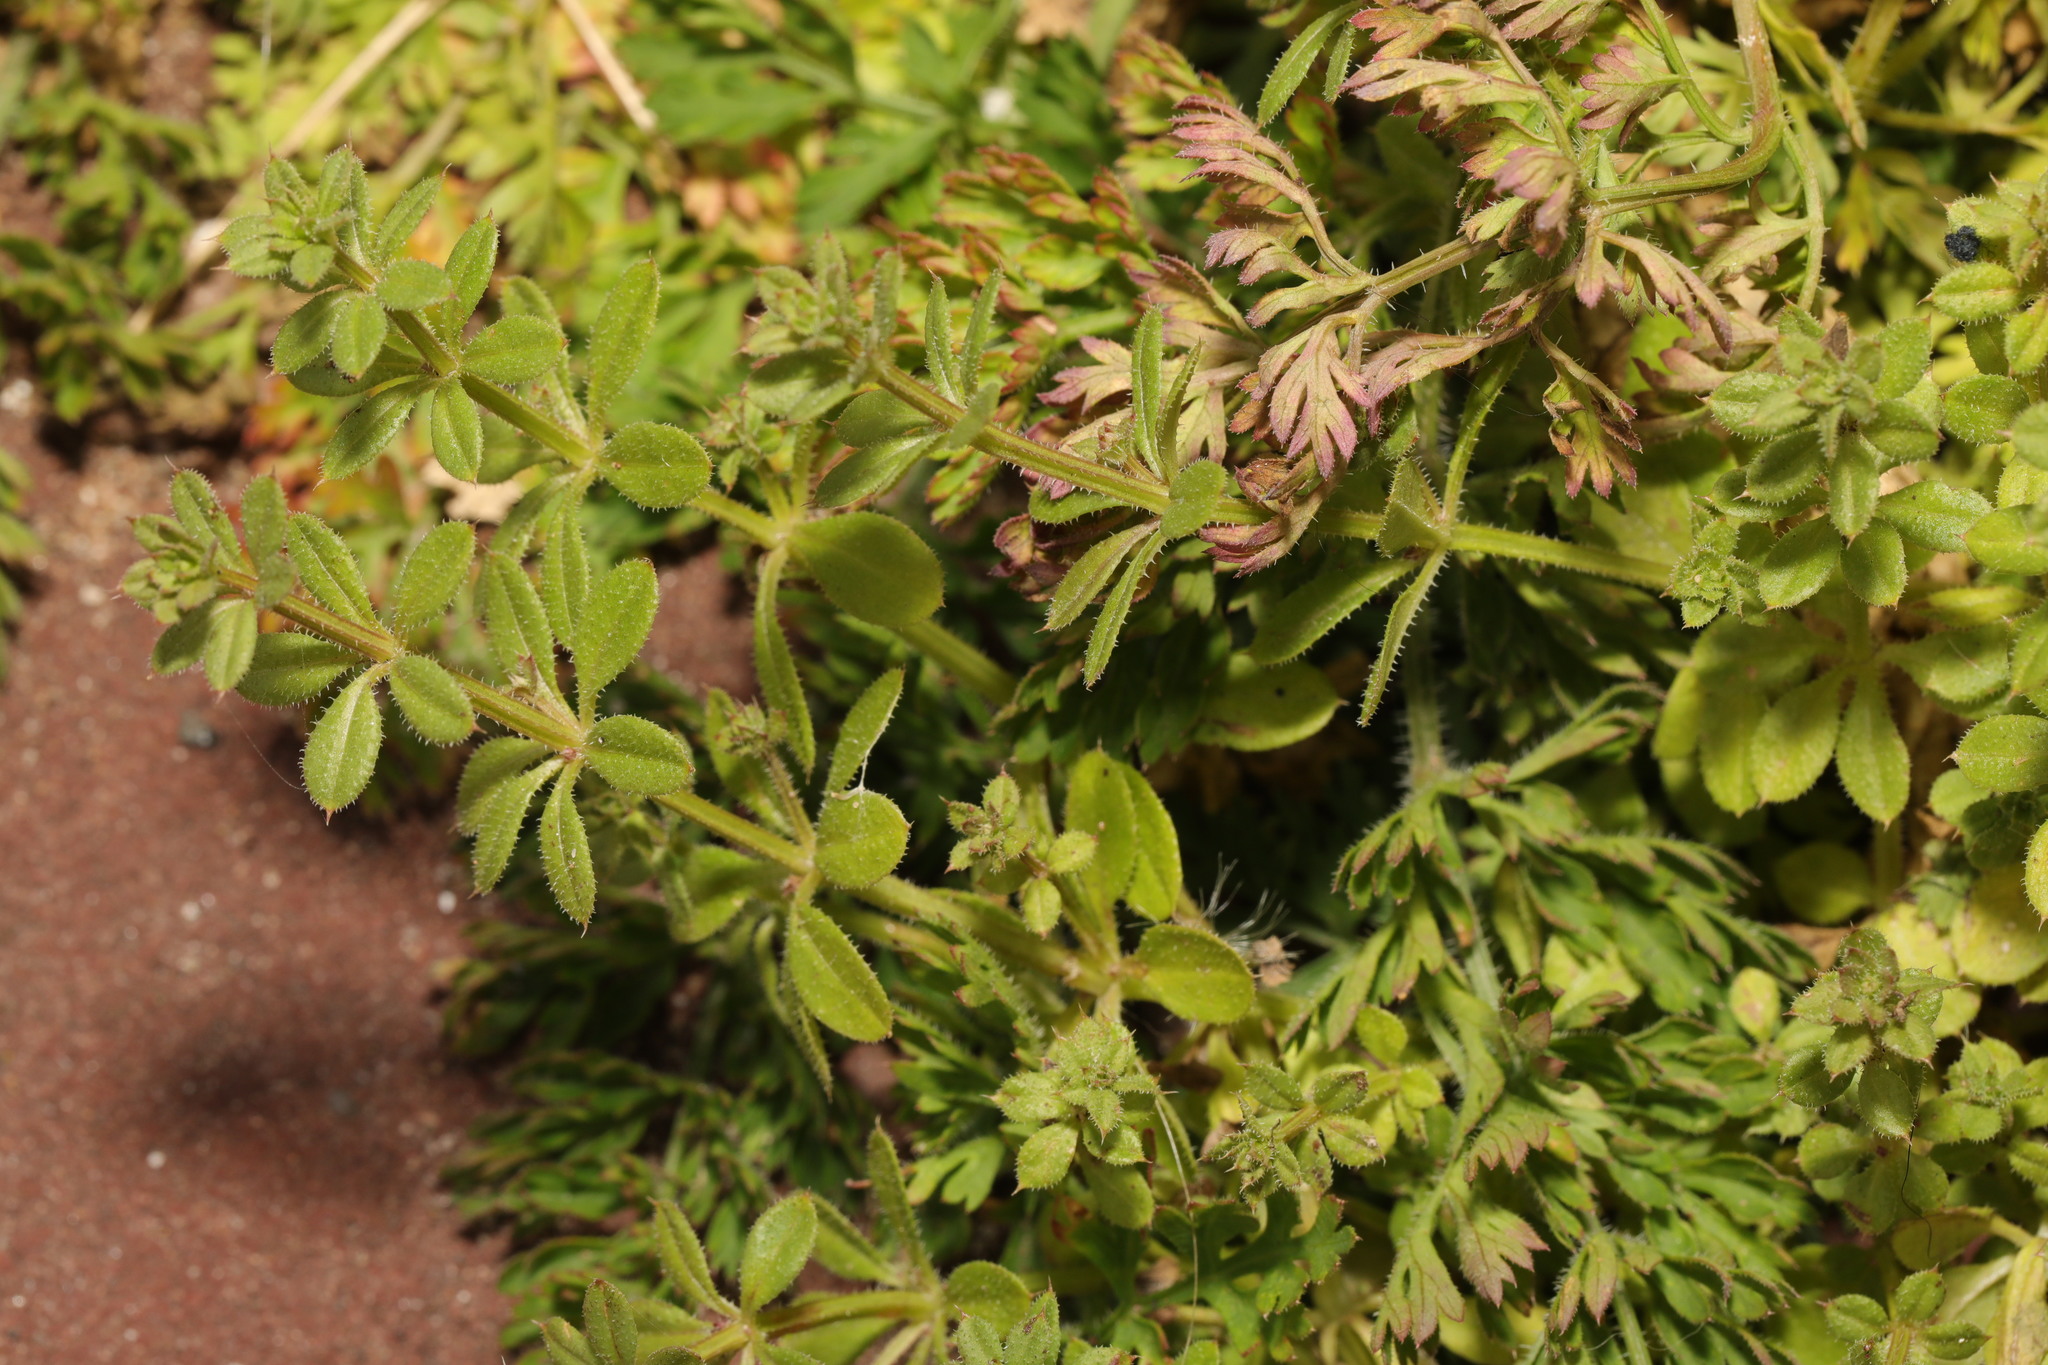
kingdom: Plantae
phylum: Tracheophyta
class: Magnoliopsida
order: Gentianales
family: Rubiaceae
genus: Galium
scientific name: Galium aparine
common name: Cleavers
